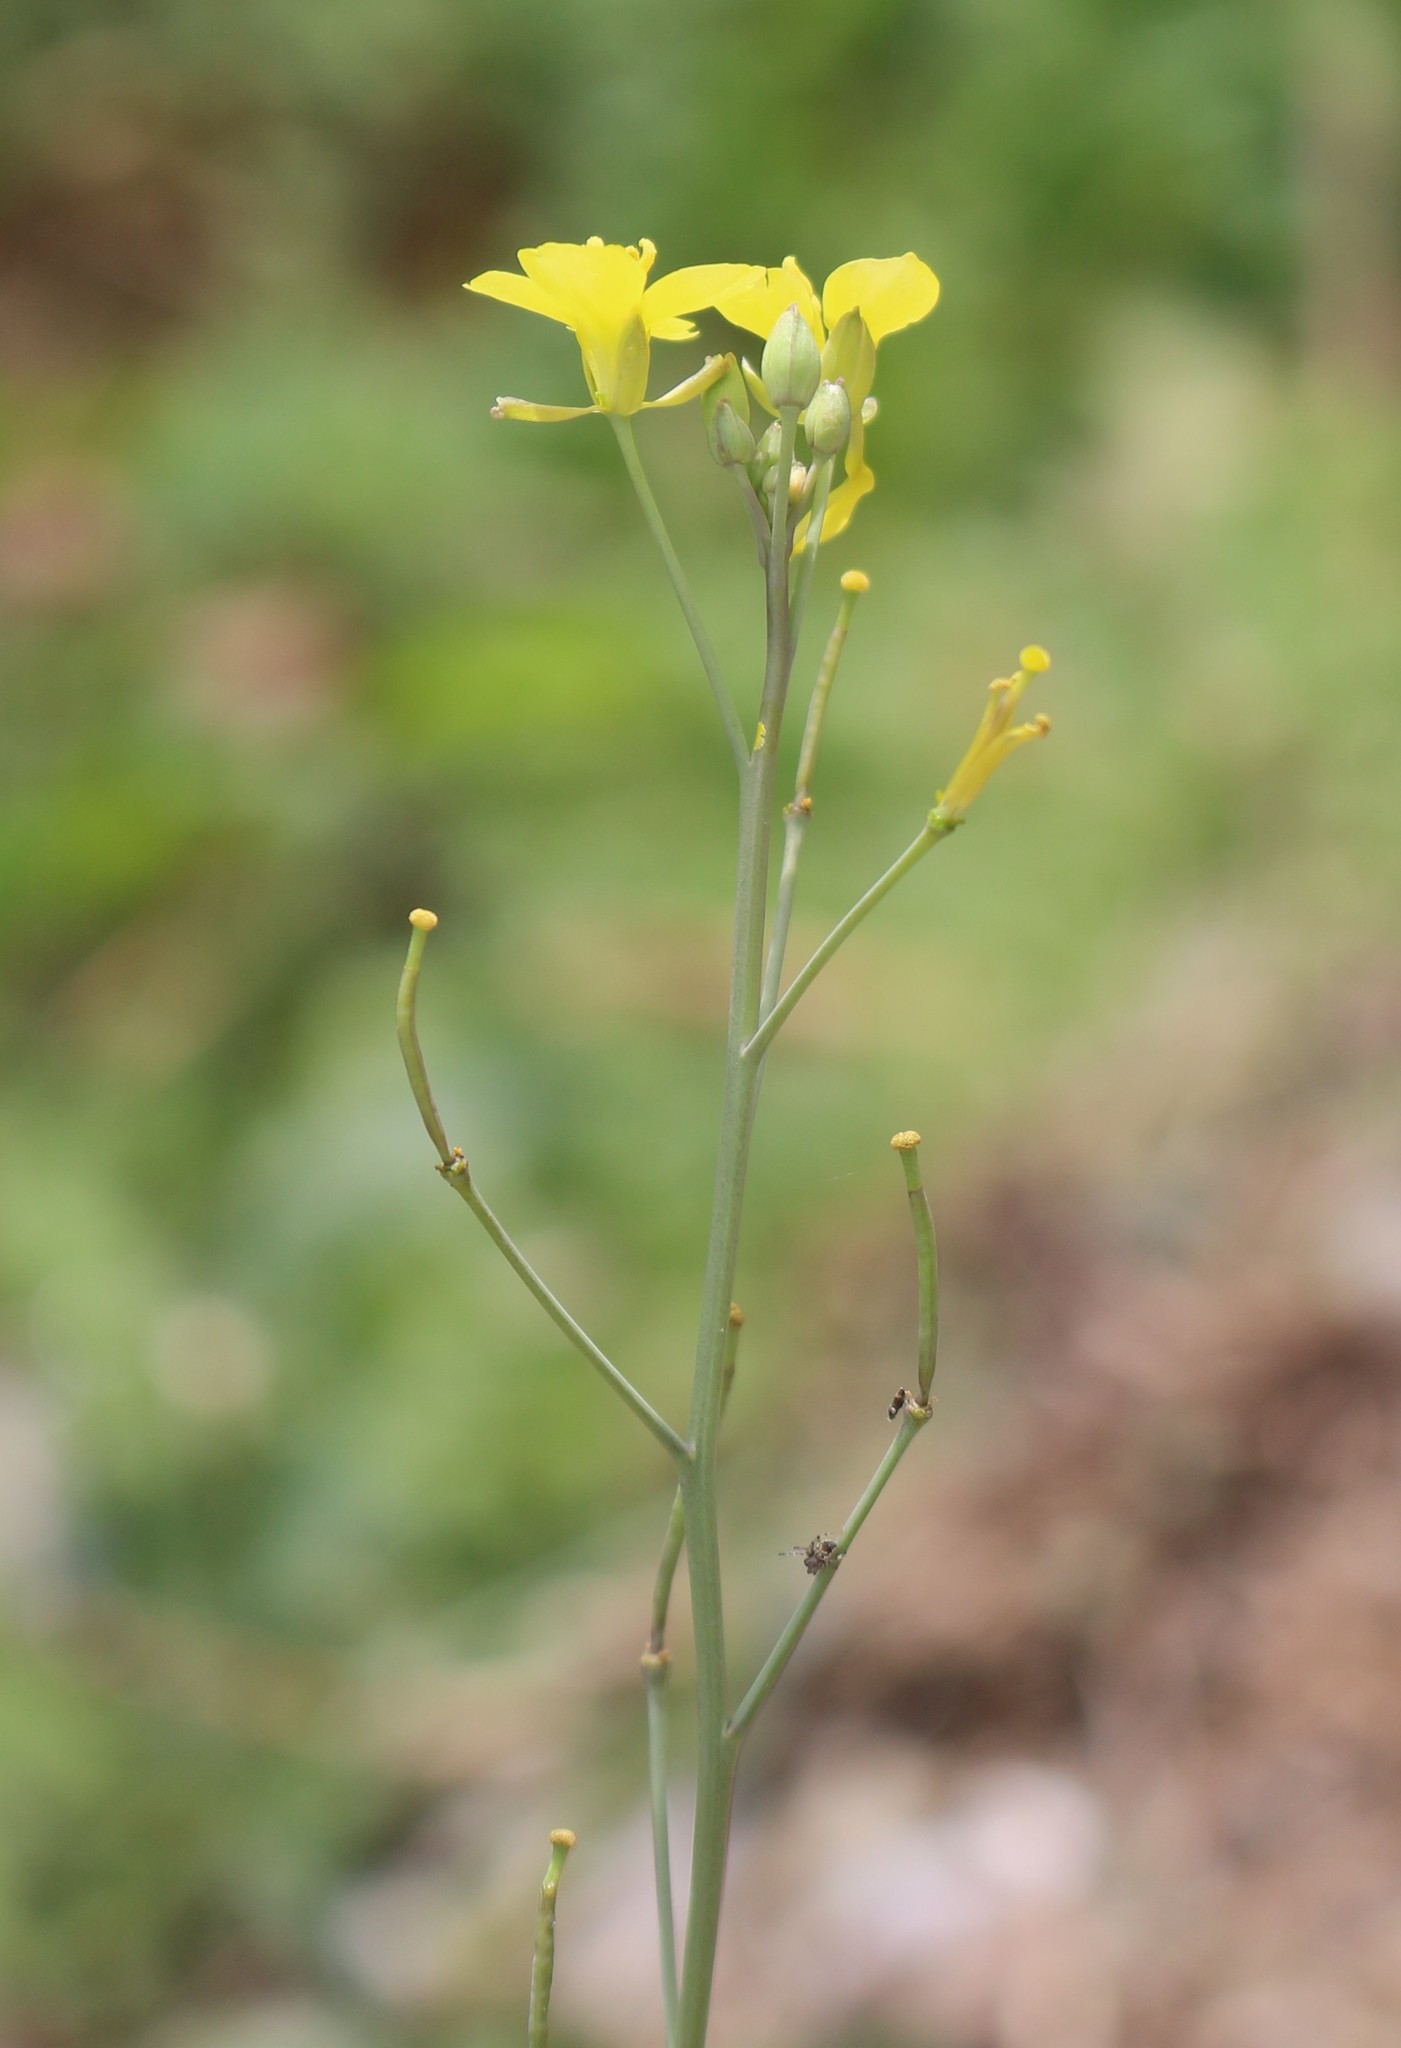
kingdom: Plantae
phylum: Tracheophyta
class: Magnoliopsida
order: Brassicales
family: Brassicaceae
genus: Diplotaxis
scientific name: Diplotaxis tenuifolia
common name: Perennial wall-rocket
